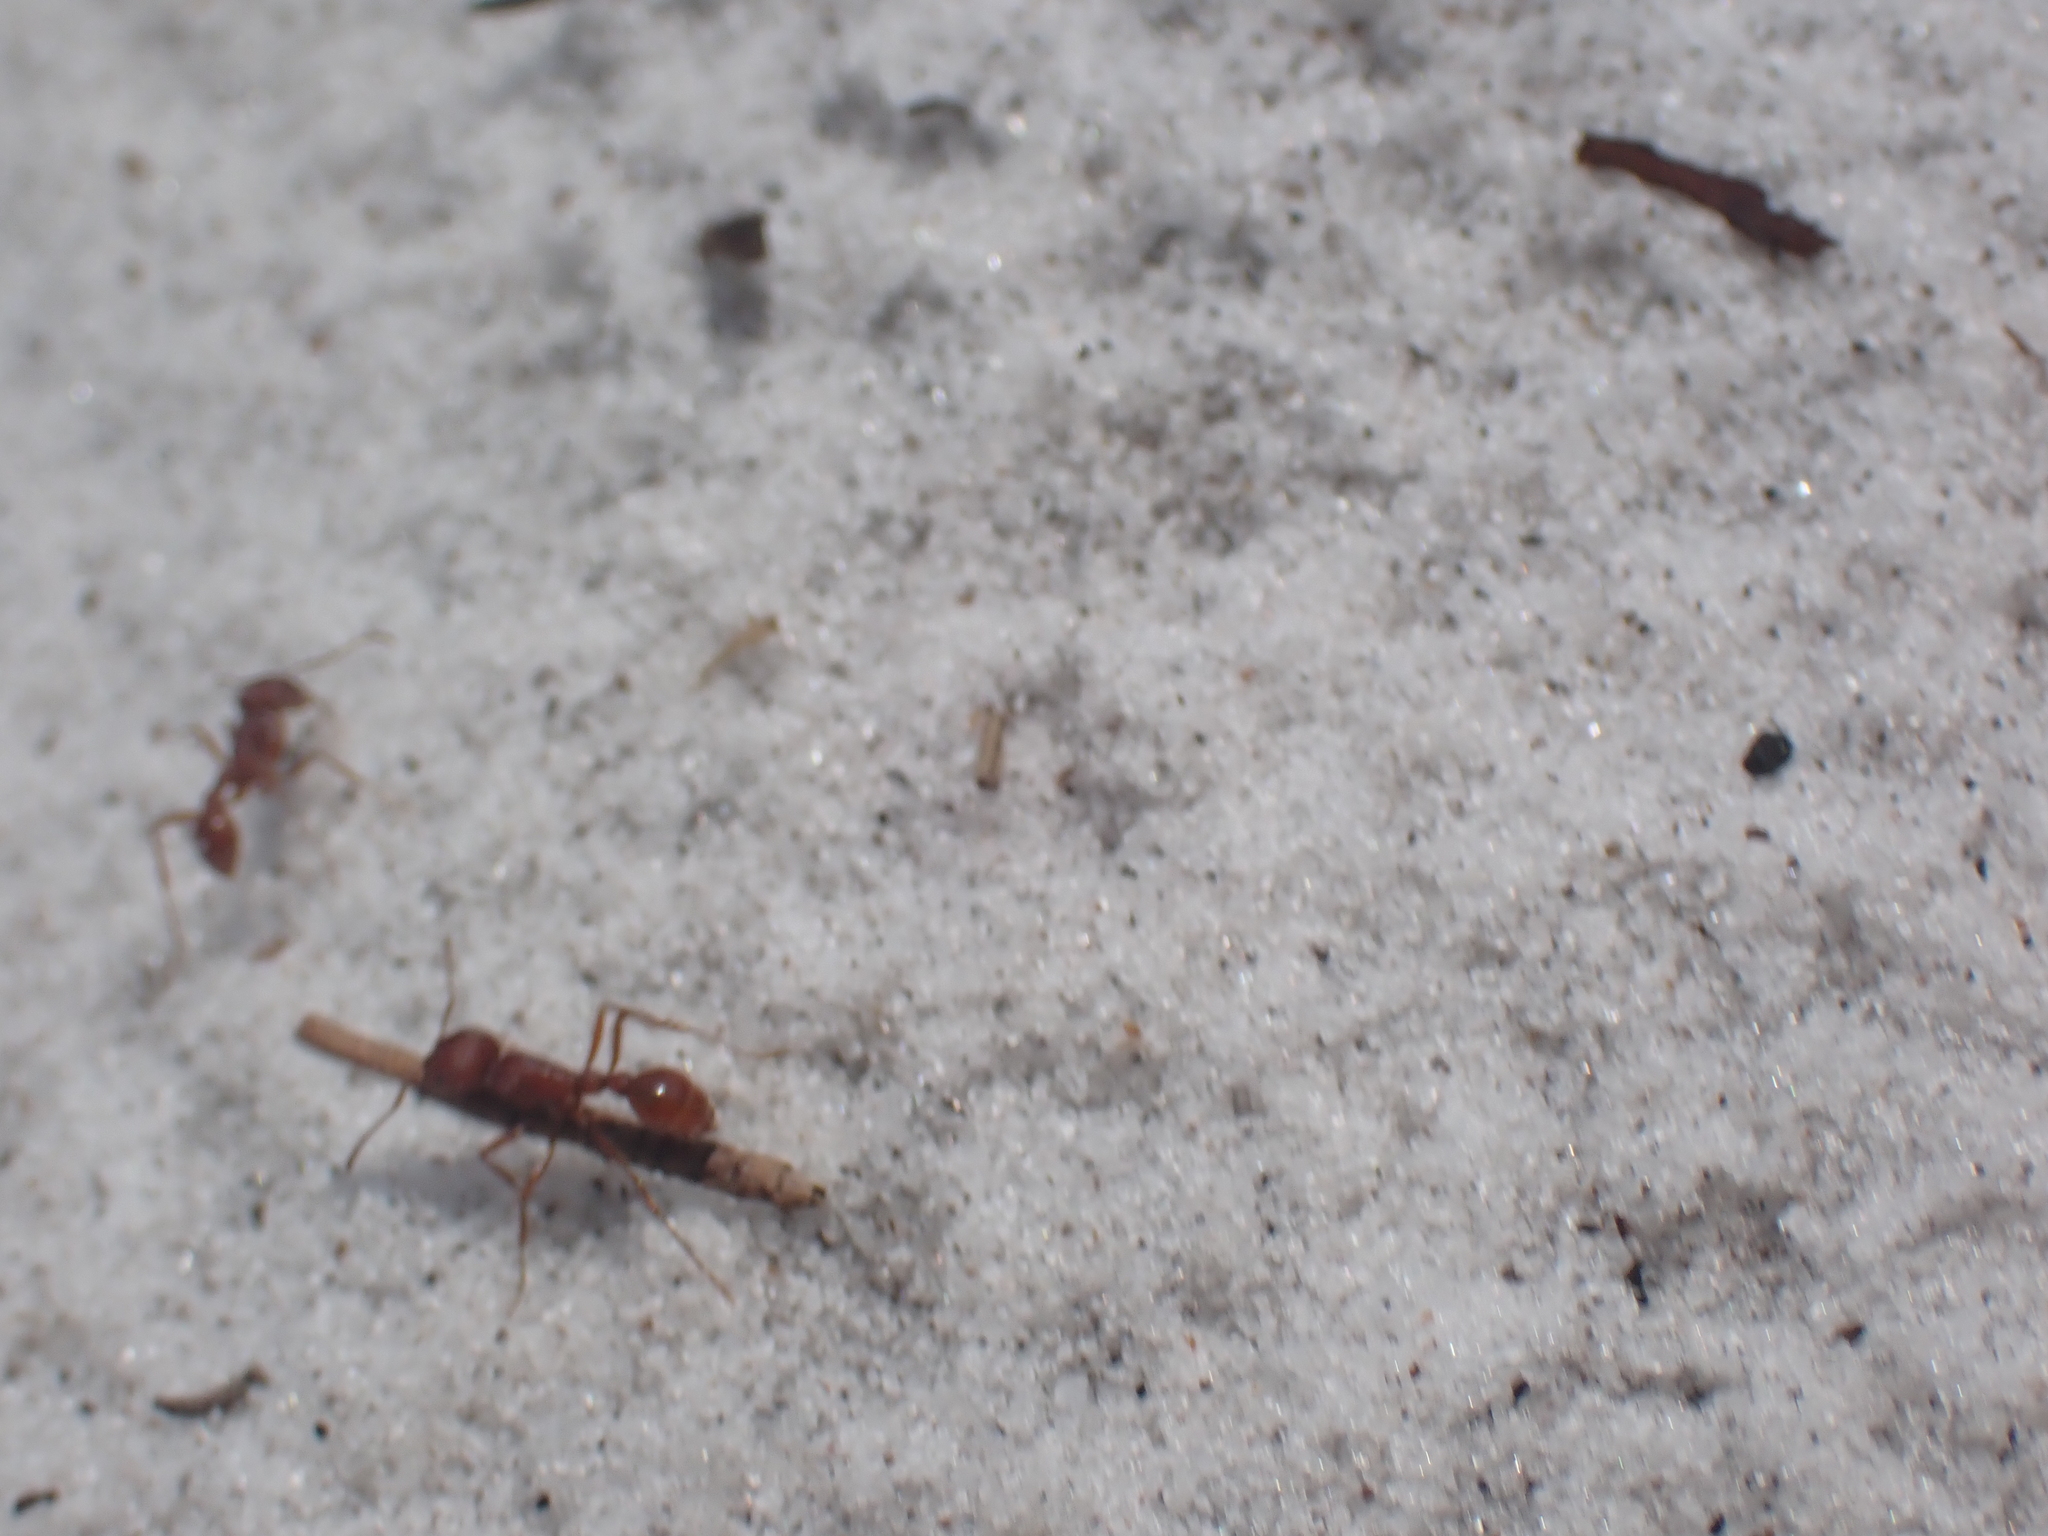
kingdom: Animalia
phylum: Arthropoda
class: Insecta
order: Hymenoptera
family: Formicidae
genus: Pogonomyrmex
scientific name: Pogonomyrmex badius
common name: Florida harvester ant
